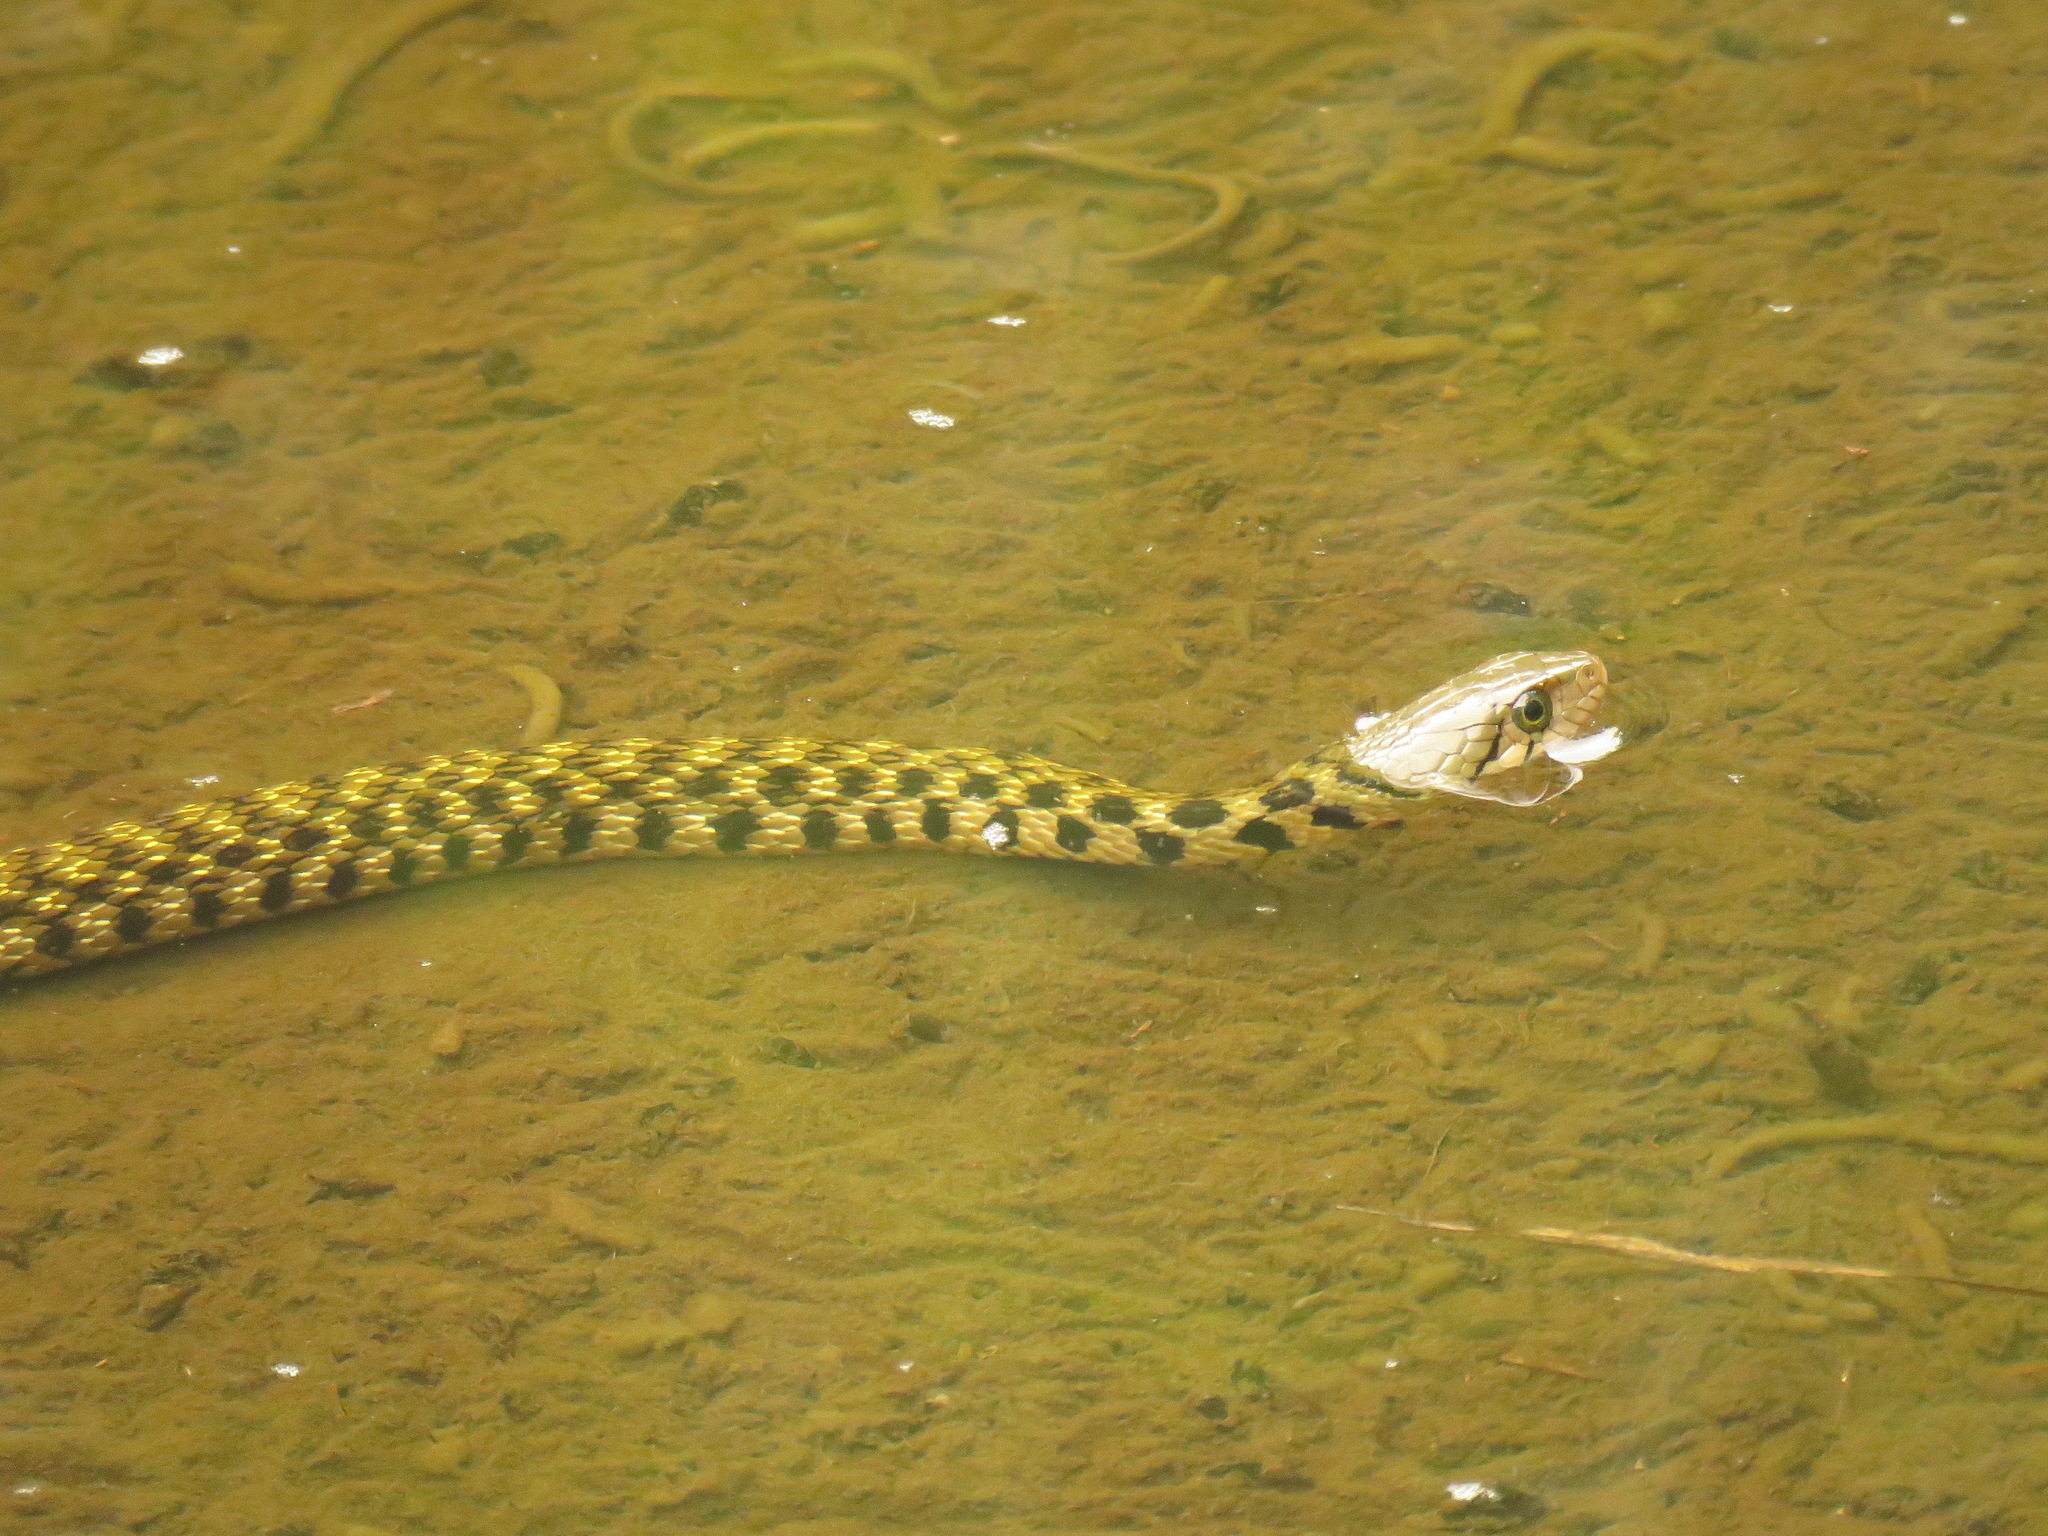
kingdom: Animalia
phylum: Chordata
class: Squamata
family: Colubridae
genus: Fowlea
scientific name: Fowlea flavipunctatus
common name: Yellow-spotted keelback
